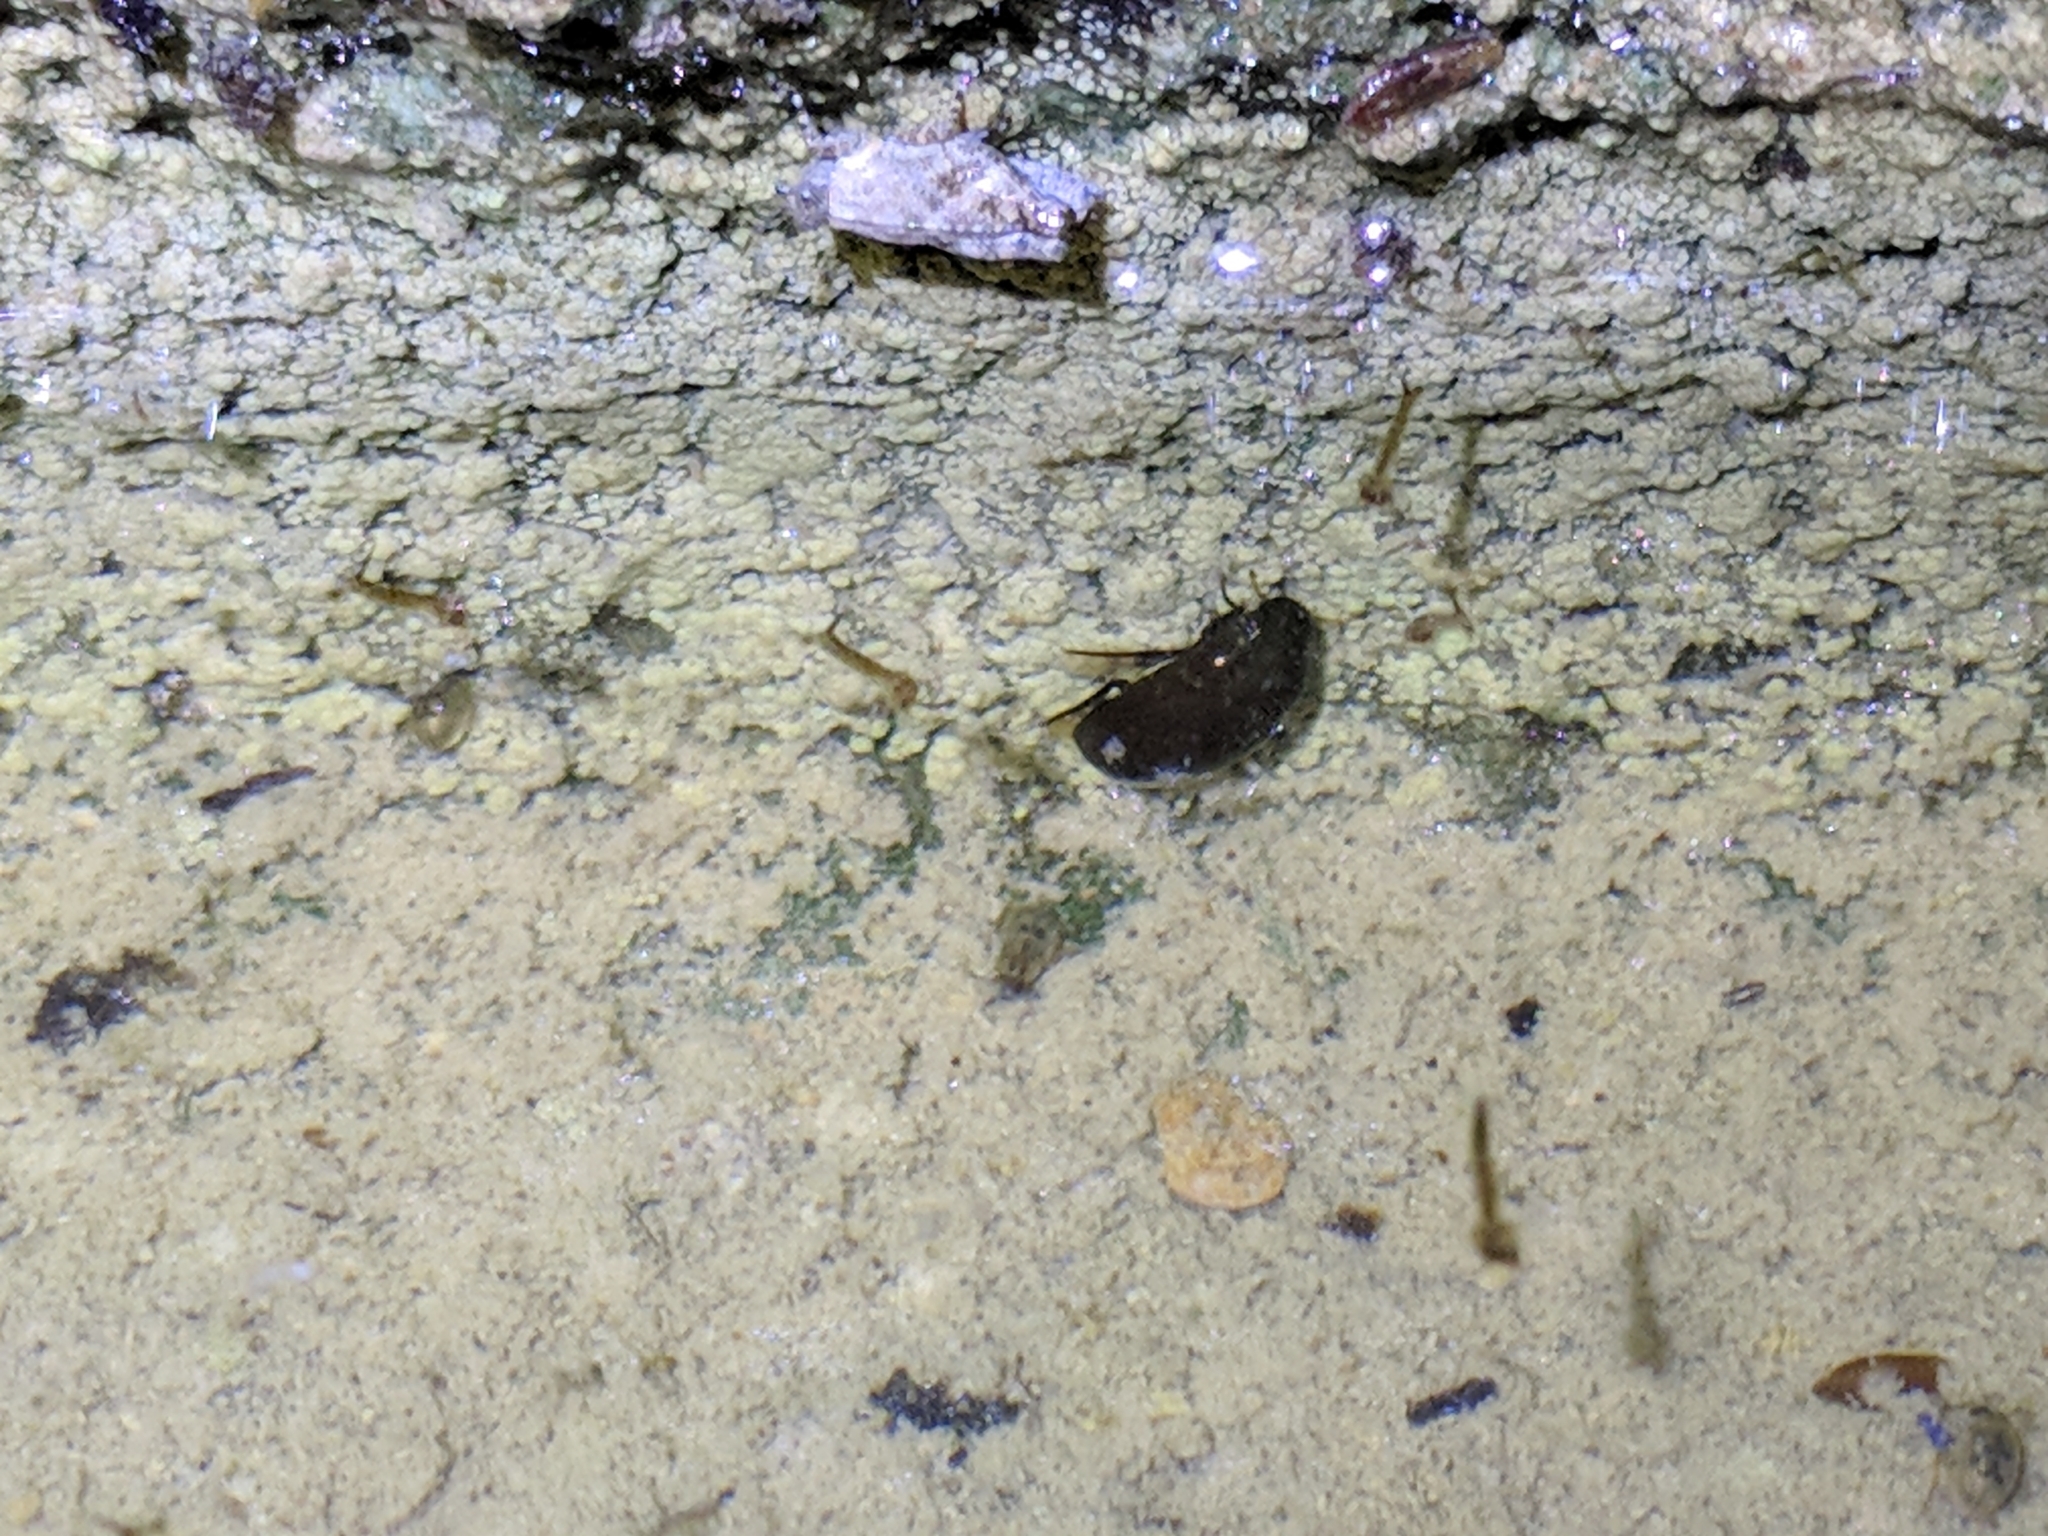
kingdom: Animalia
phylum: Arthropoda
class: Insecta
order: Coleoptera
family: Hydrophilidae
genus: Tropisternus
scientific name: Tropisternus
